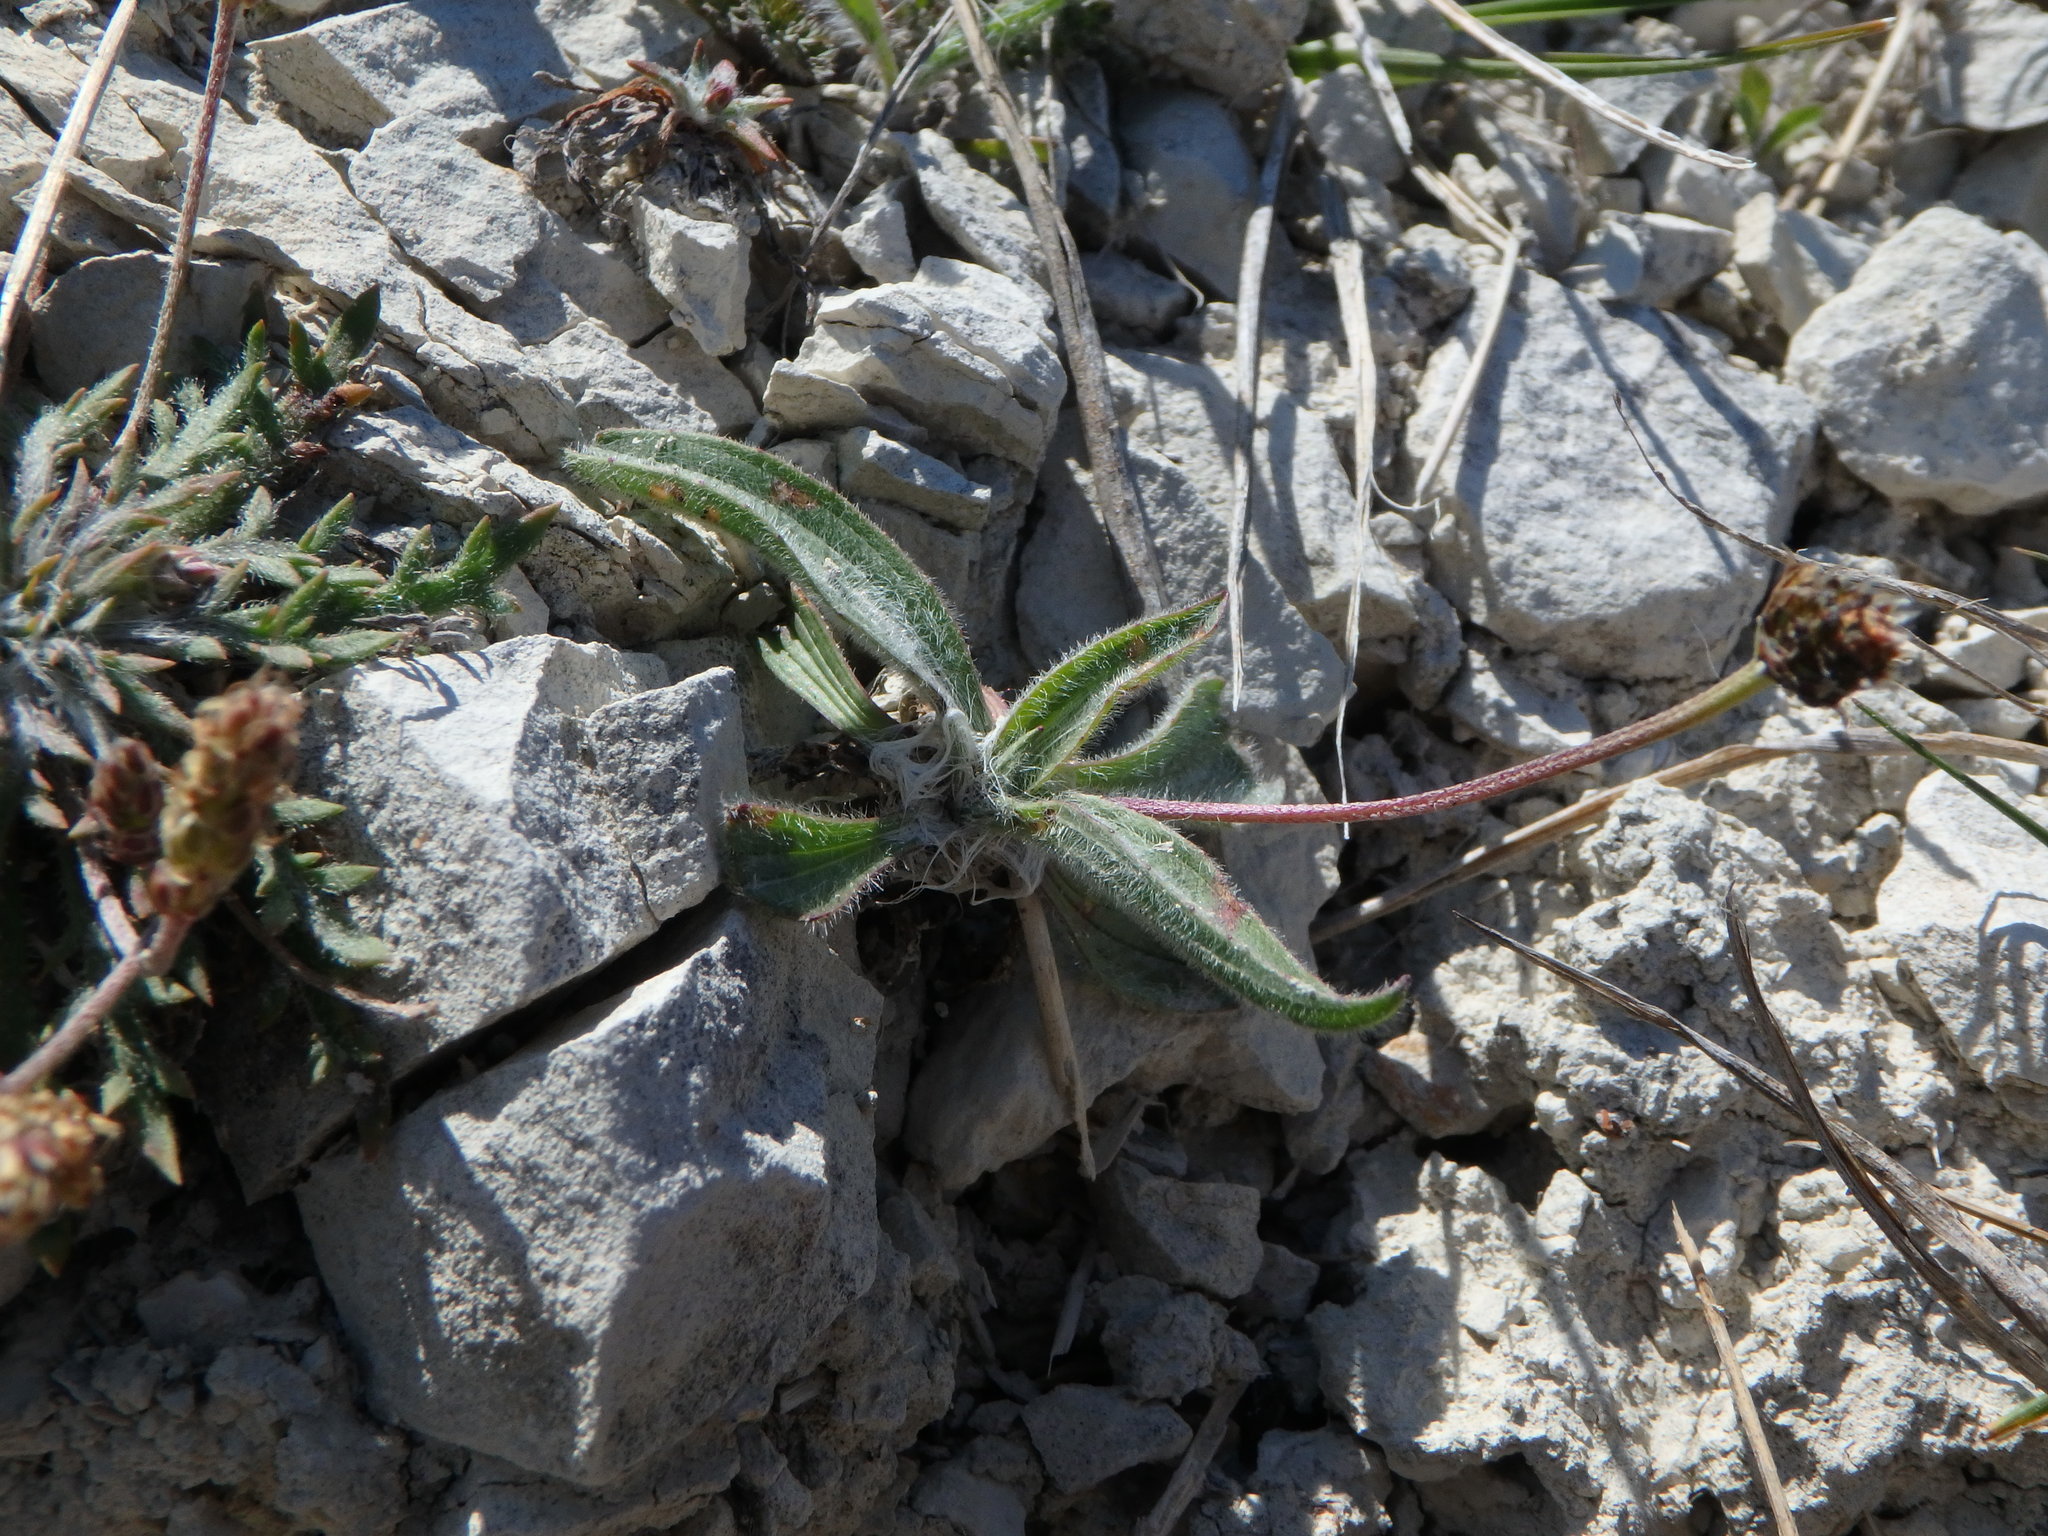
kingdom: Plantae
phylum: Tracheophyta
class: Magnoliopsida
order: Lamiales
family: Plantaginaceae
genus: Plantago
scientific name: Plantago lanceolata
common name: Ribwort plantain
